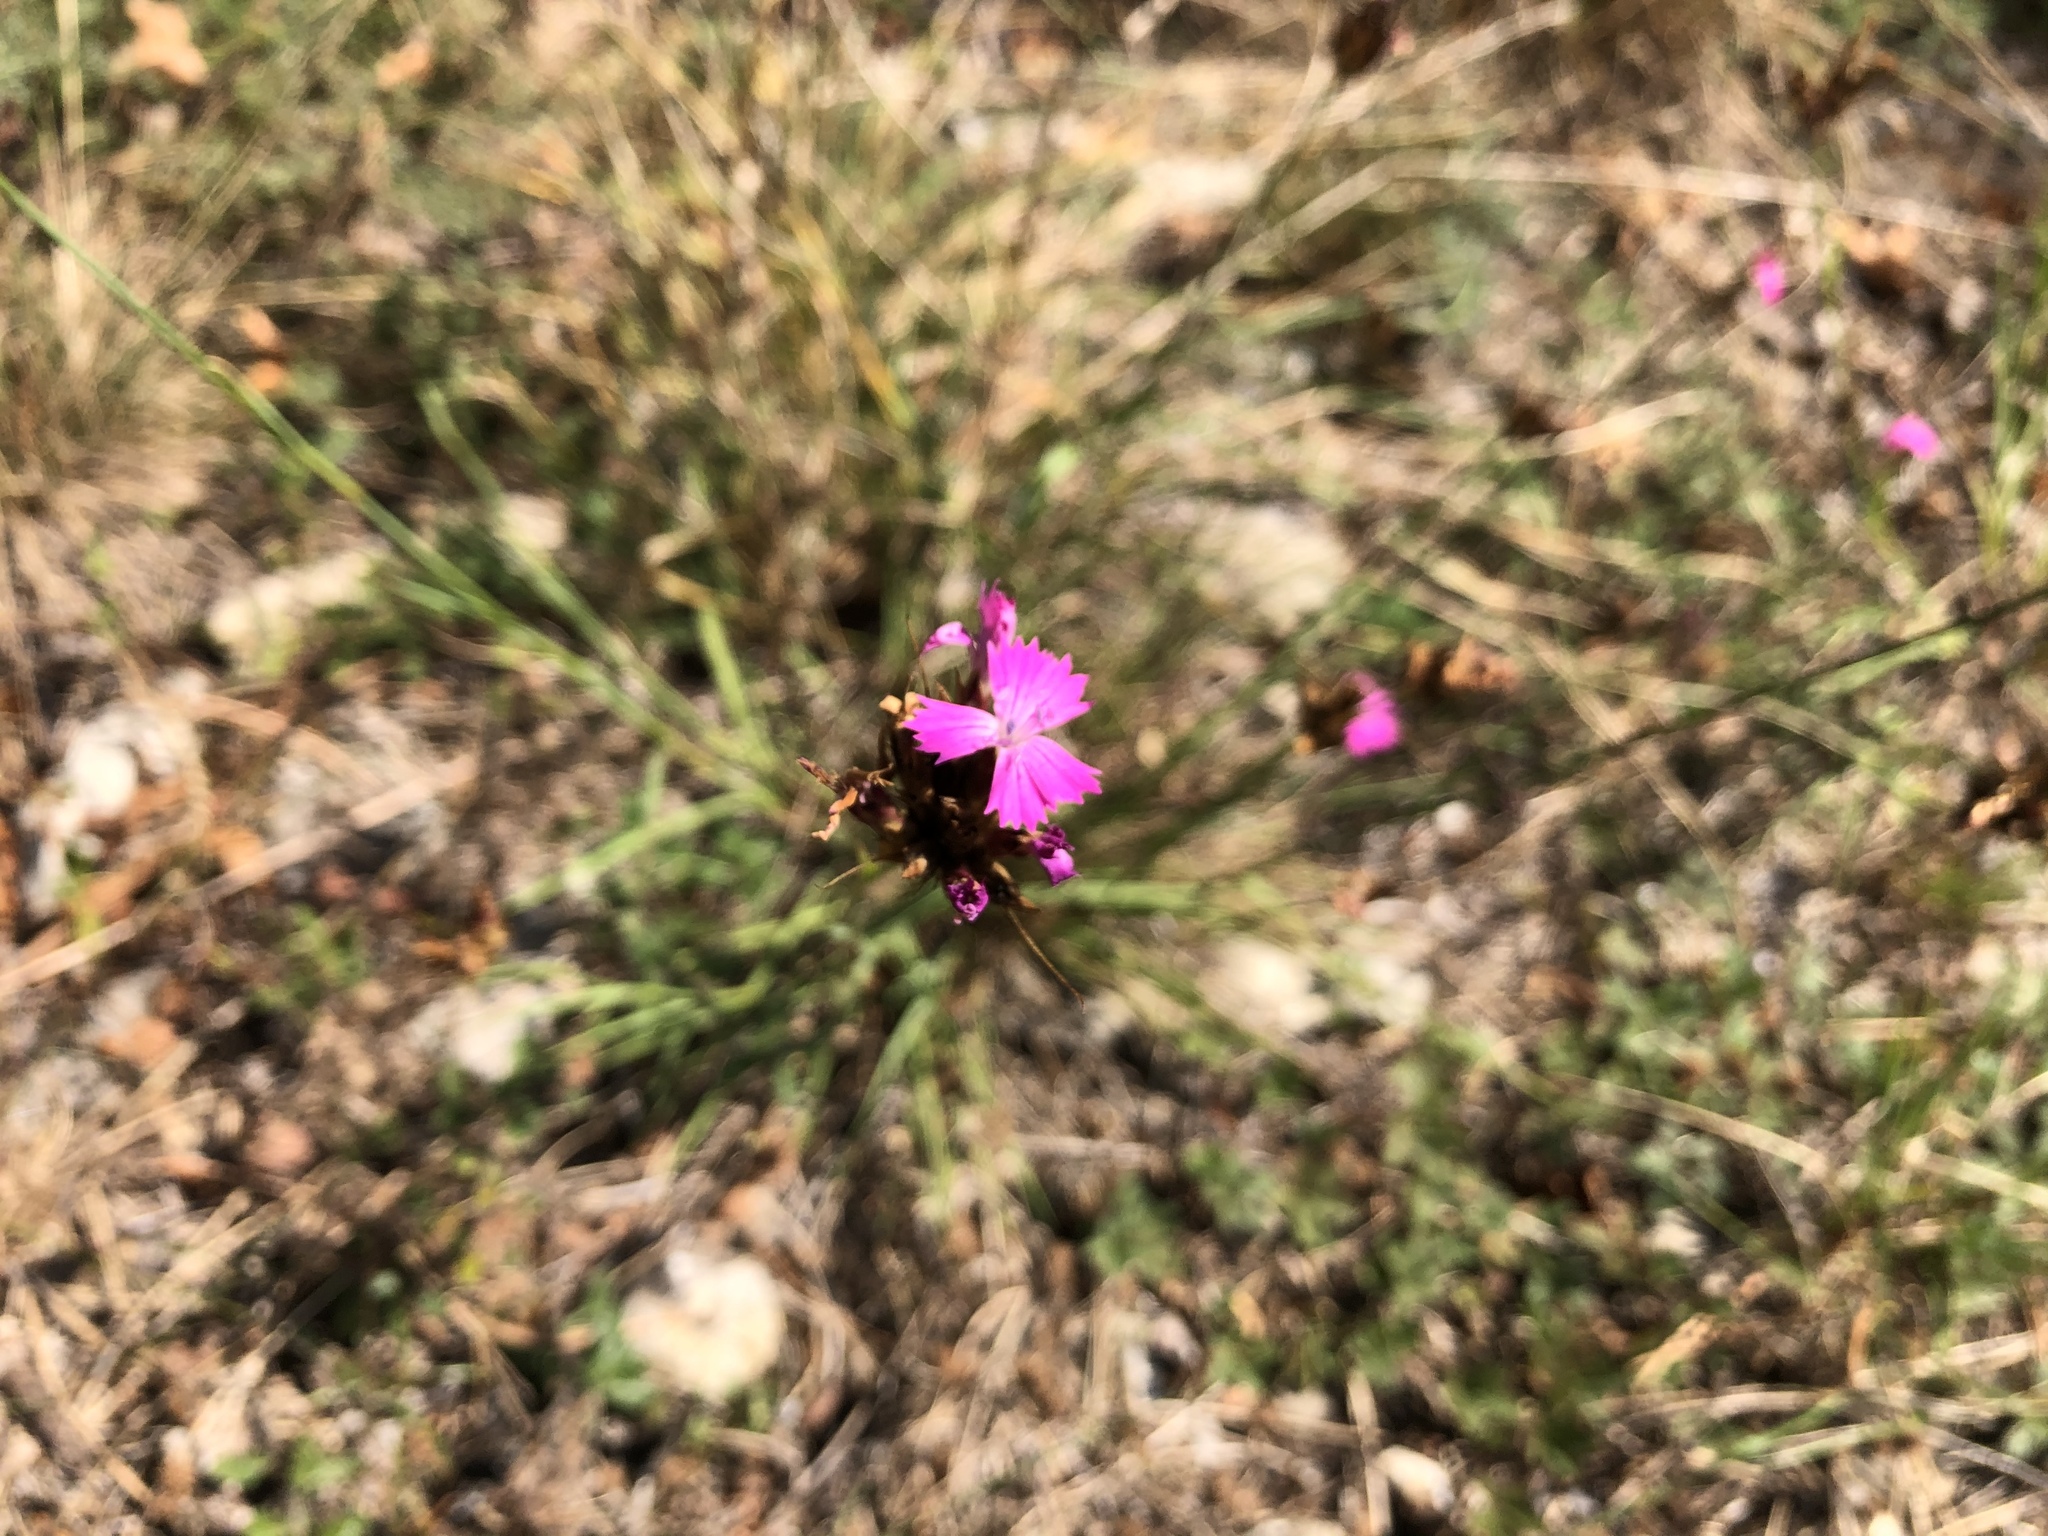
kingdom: Plantae
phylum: Tracheophyta
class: Magnoliopsida
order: Caryophyllales
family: Caryophyllaceae
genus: Dianthus
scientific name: Dianthus carthusianorum
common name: Carthusian pink
